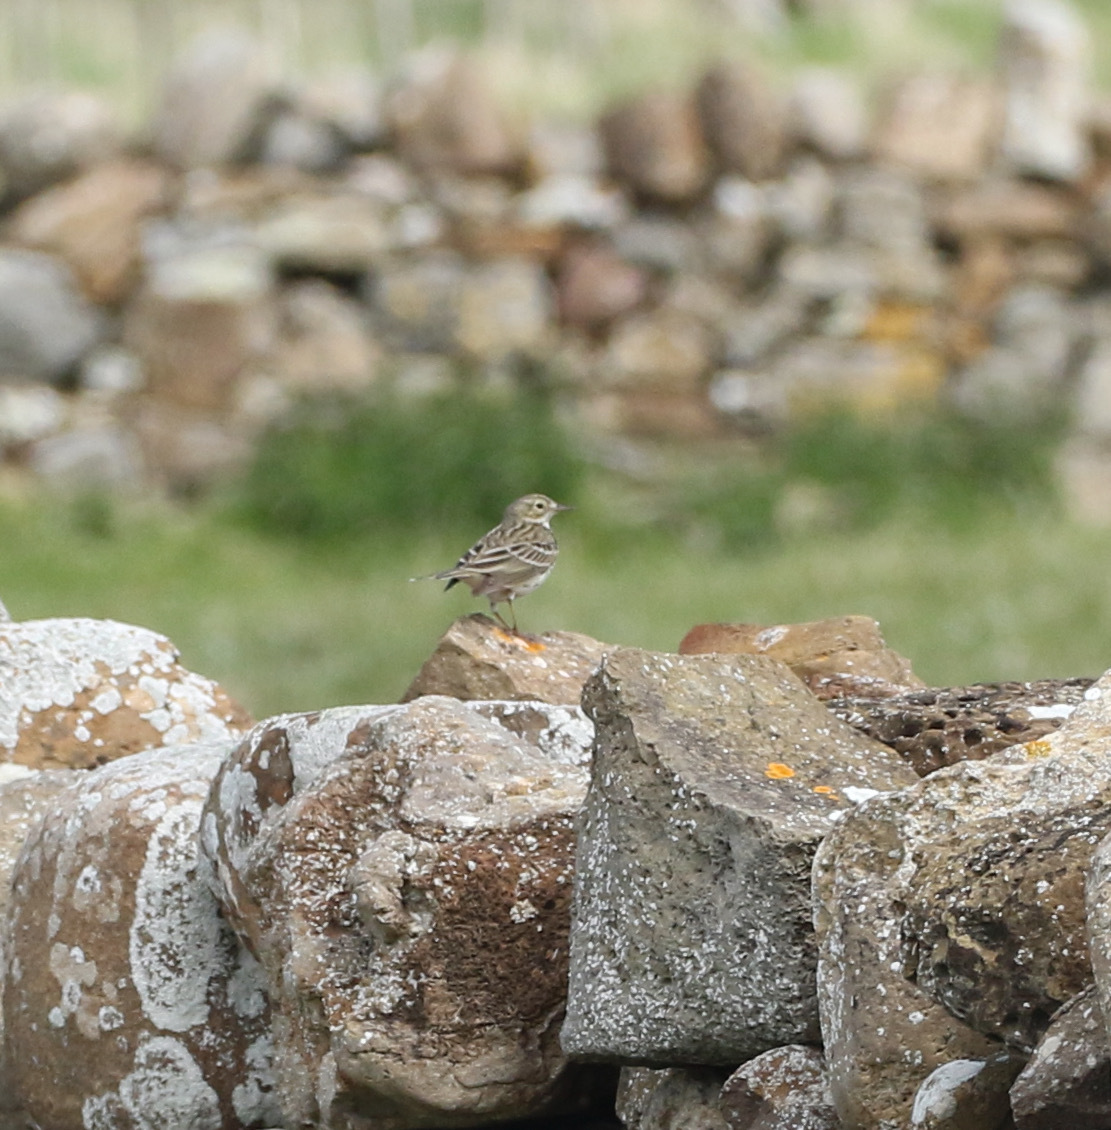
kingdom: Animalia
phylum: Chordata
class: Aves
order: Passeriformes
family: Motacillidae
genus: Anthus
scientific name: Anthus pratensis
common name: Meadow pipit
